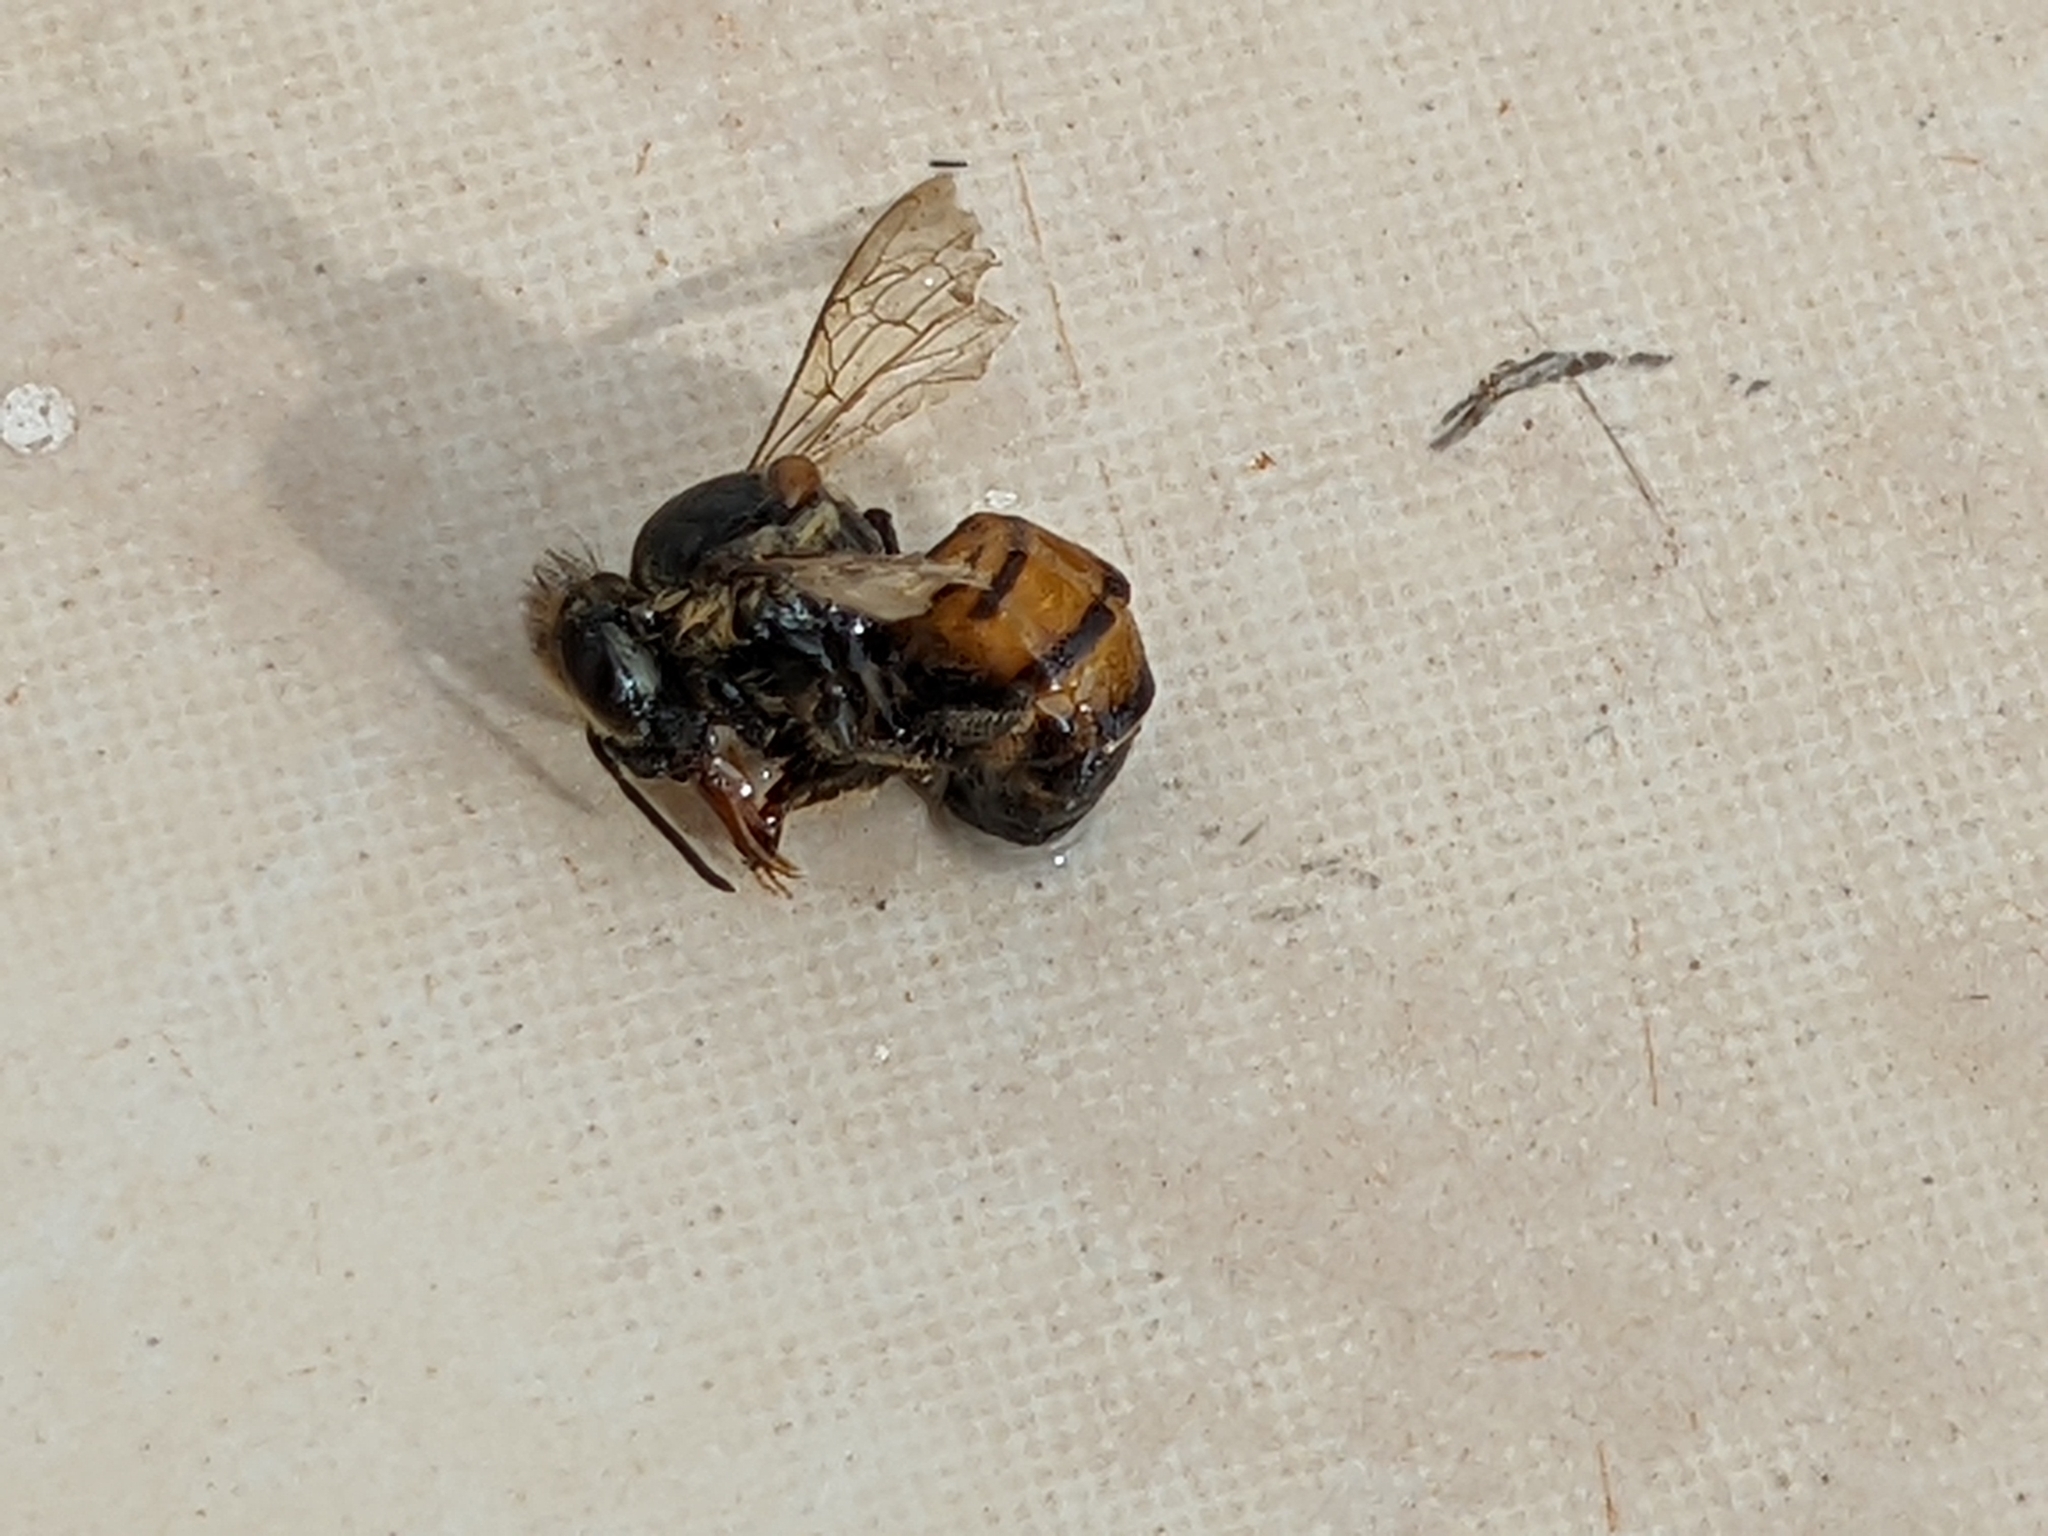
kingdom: Animalia
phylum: Arthropoda
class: Insecta
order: Hymenoptera
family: Apidae
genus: Apis
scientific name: Apis mellifera
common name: Honey bee
